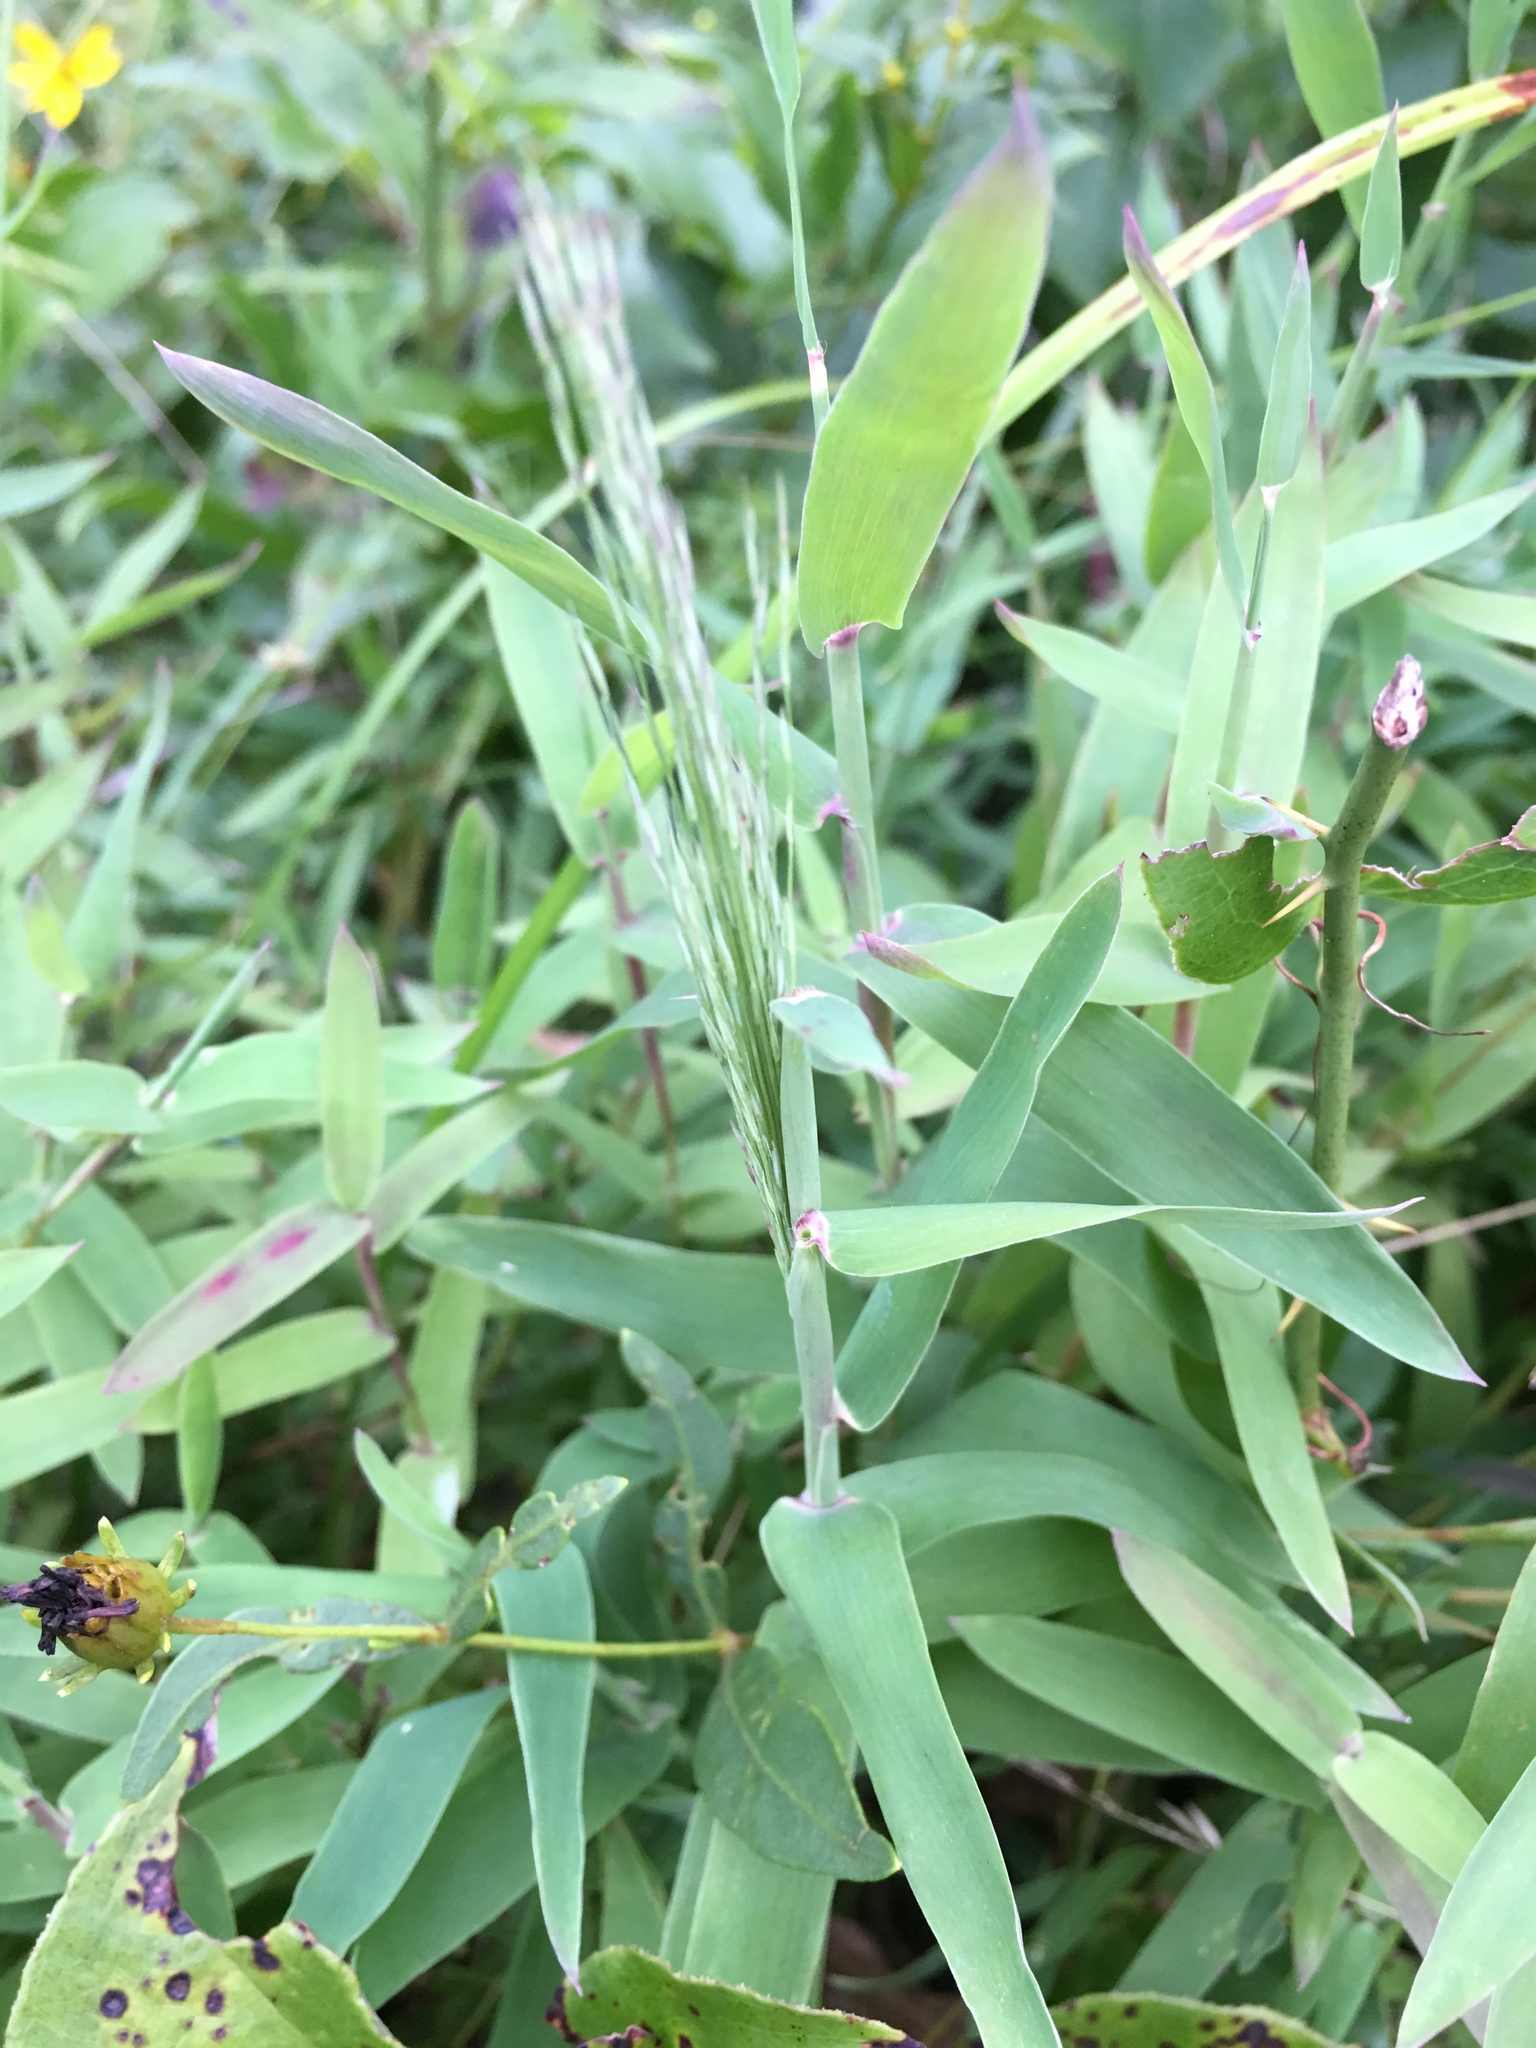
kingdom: Plantae
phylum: Tracheophyta
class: Liliopsida
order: Poales
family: Poaceae
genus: Gymnopogon
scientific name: Gymnopogon ambiguus
